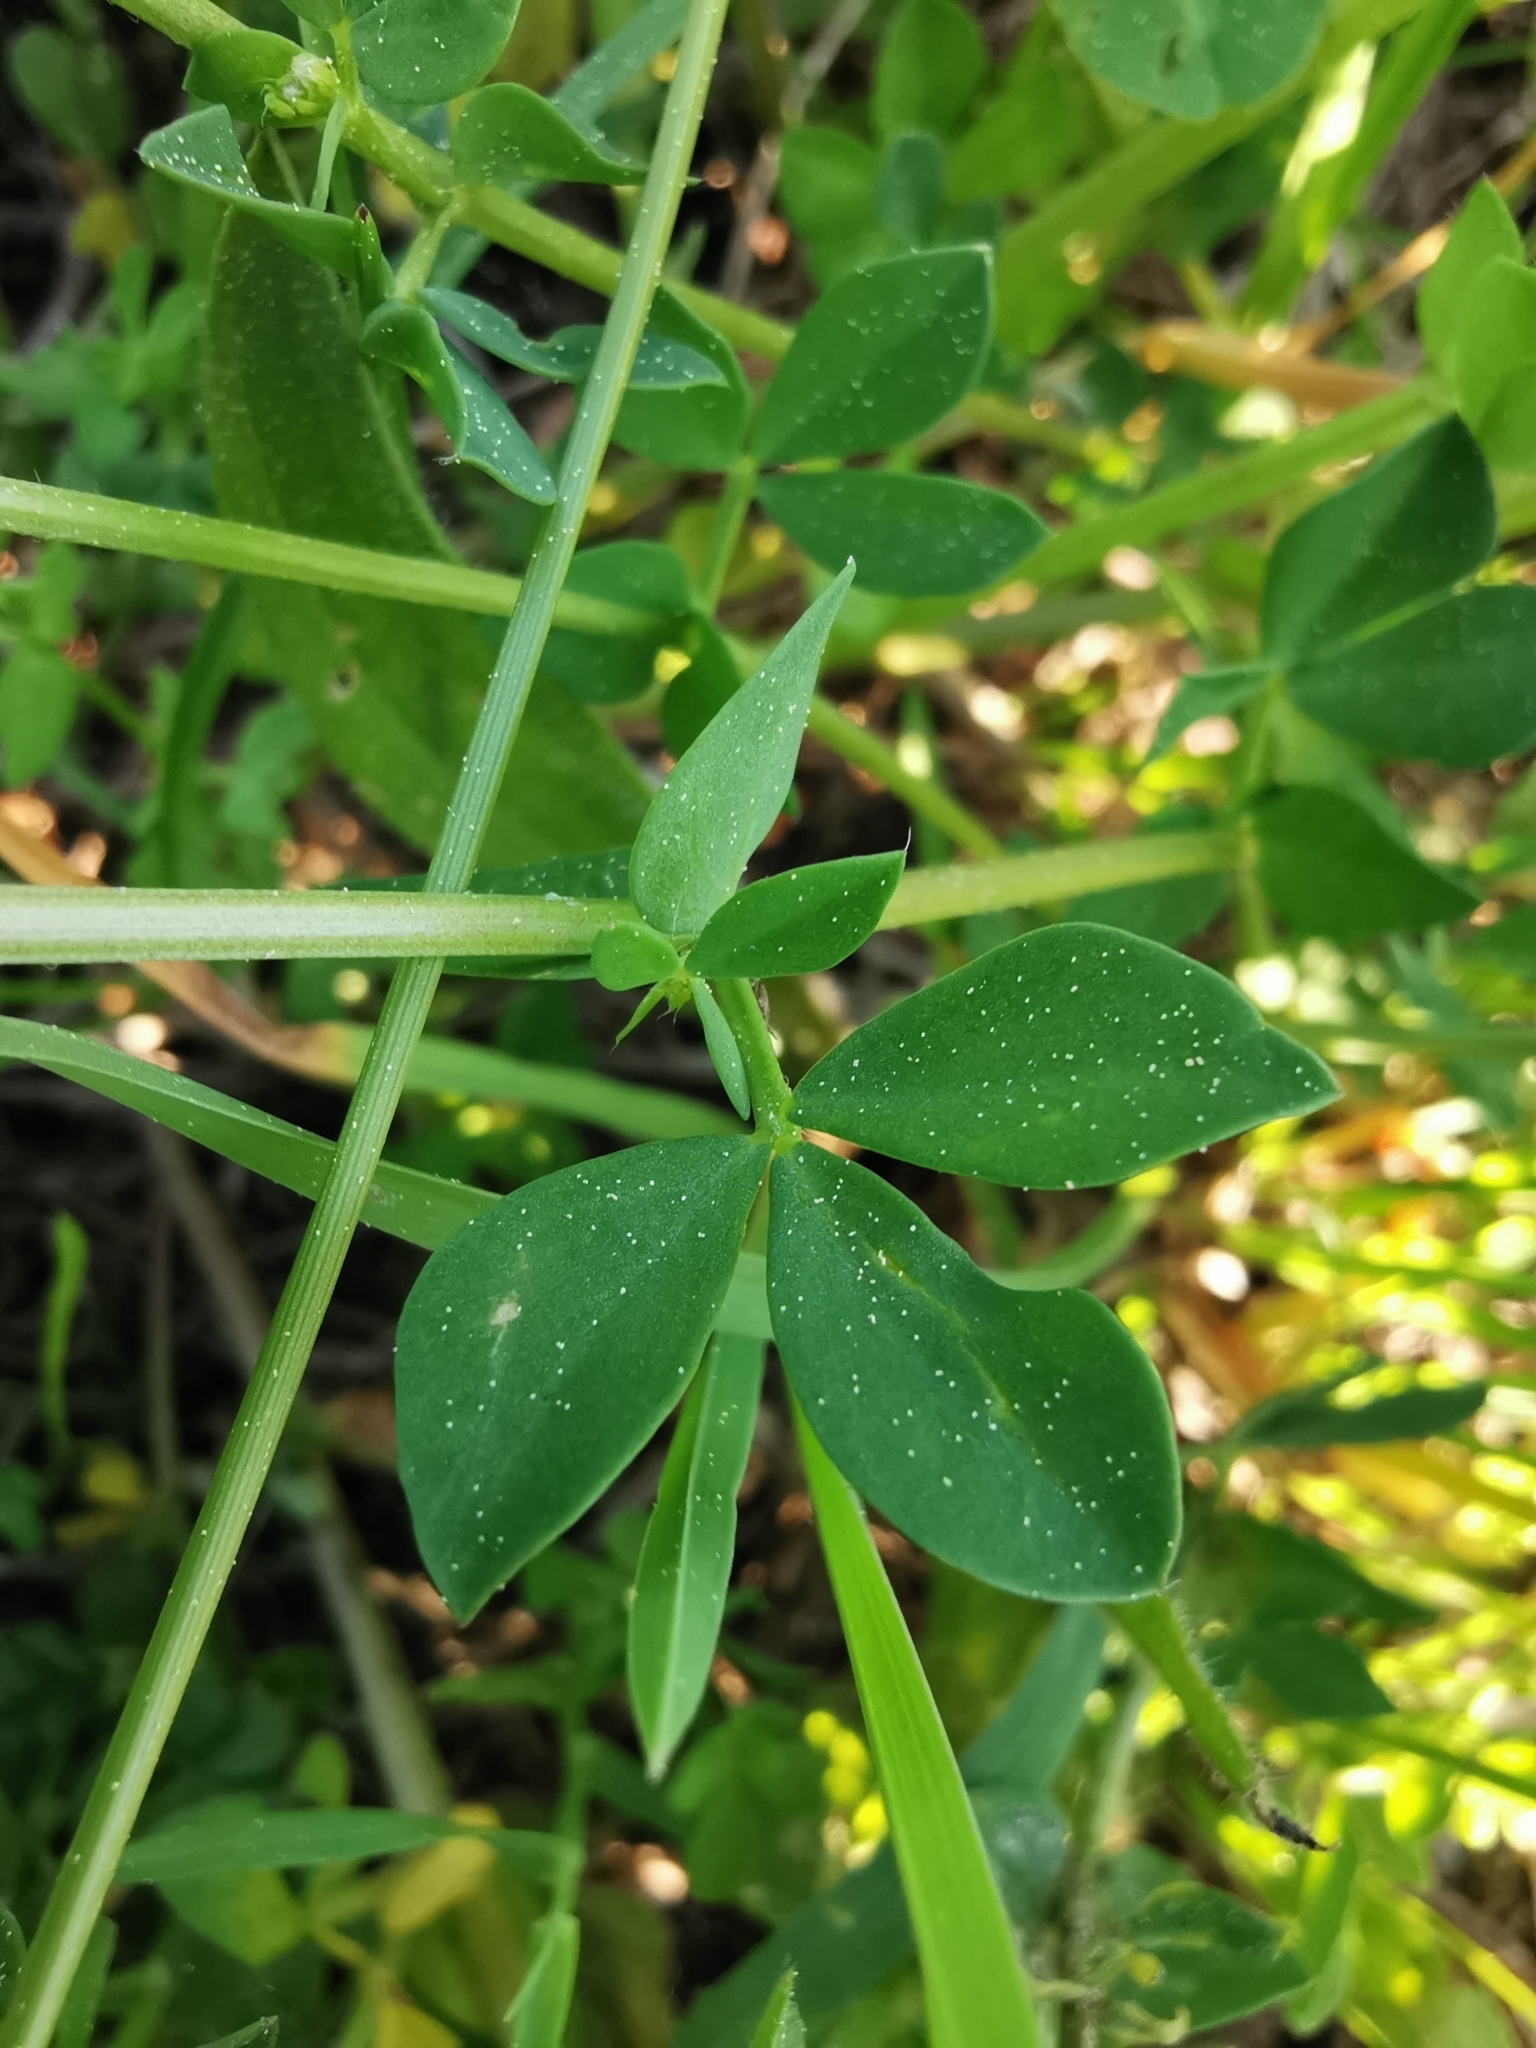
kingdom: Plantae
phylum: Tracheophyta
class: Magnoliopsida
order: Fabales
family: Fabaceae
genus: Lotus
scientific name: Lotus corniculatus
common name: Common bird's-foot-trefoil
